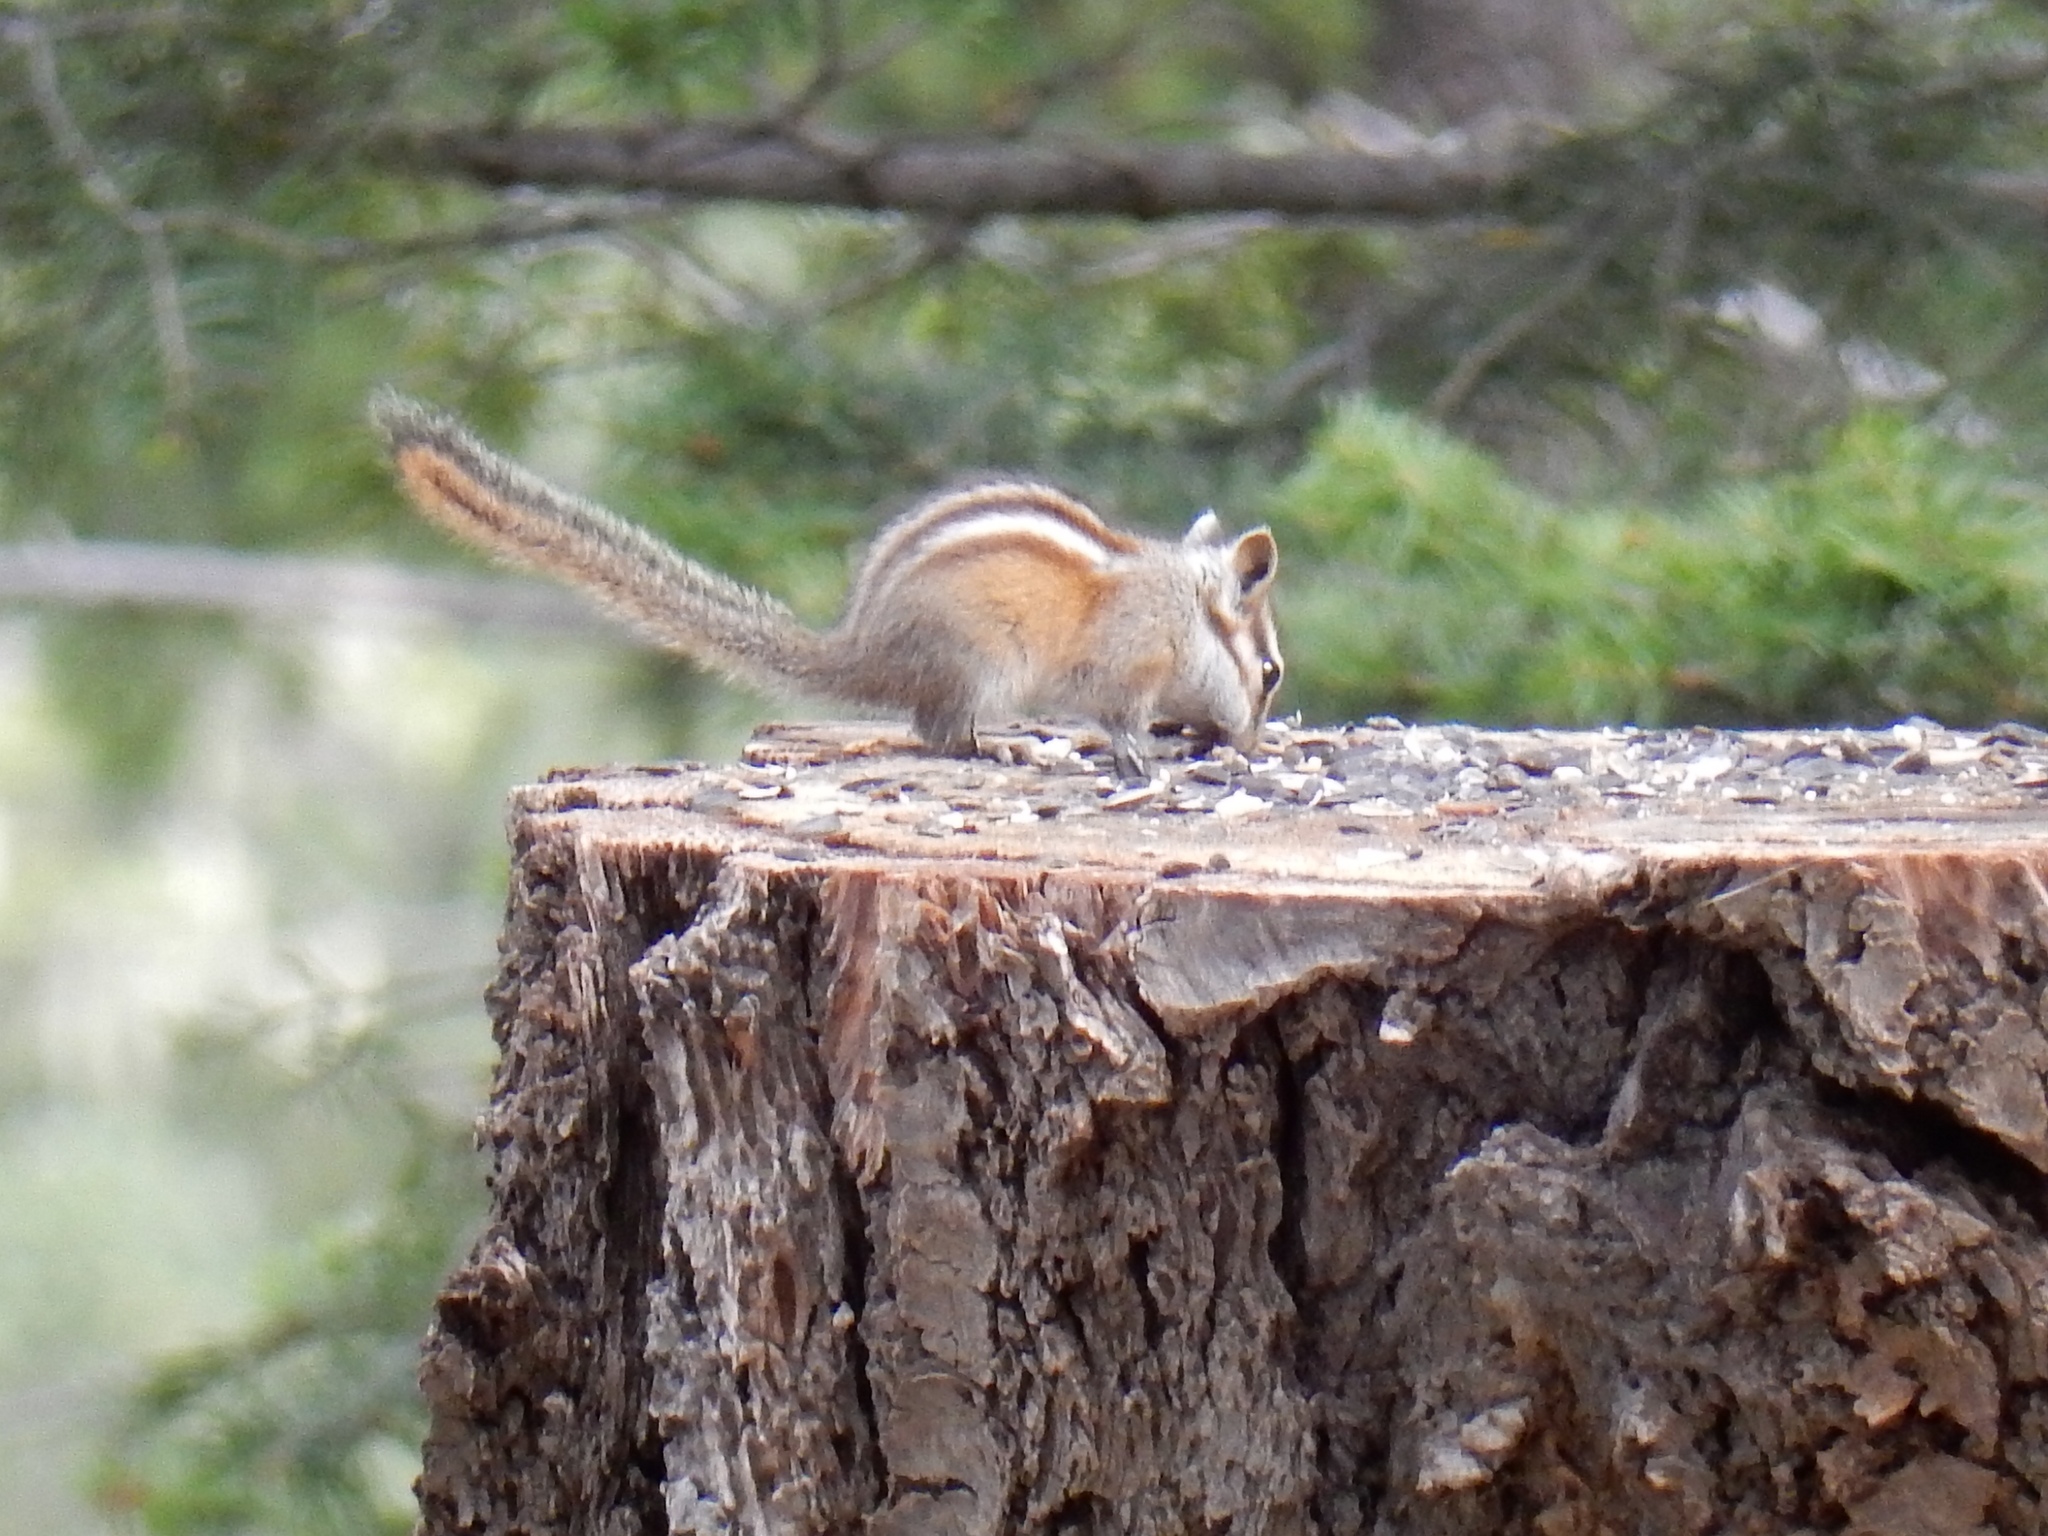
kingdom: Animalia
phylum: Chordata
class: Mammalia
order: Rodentia
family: Sciuridae
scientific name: Sciuridae
